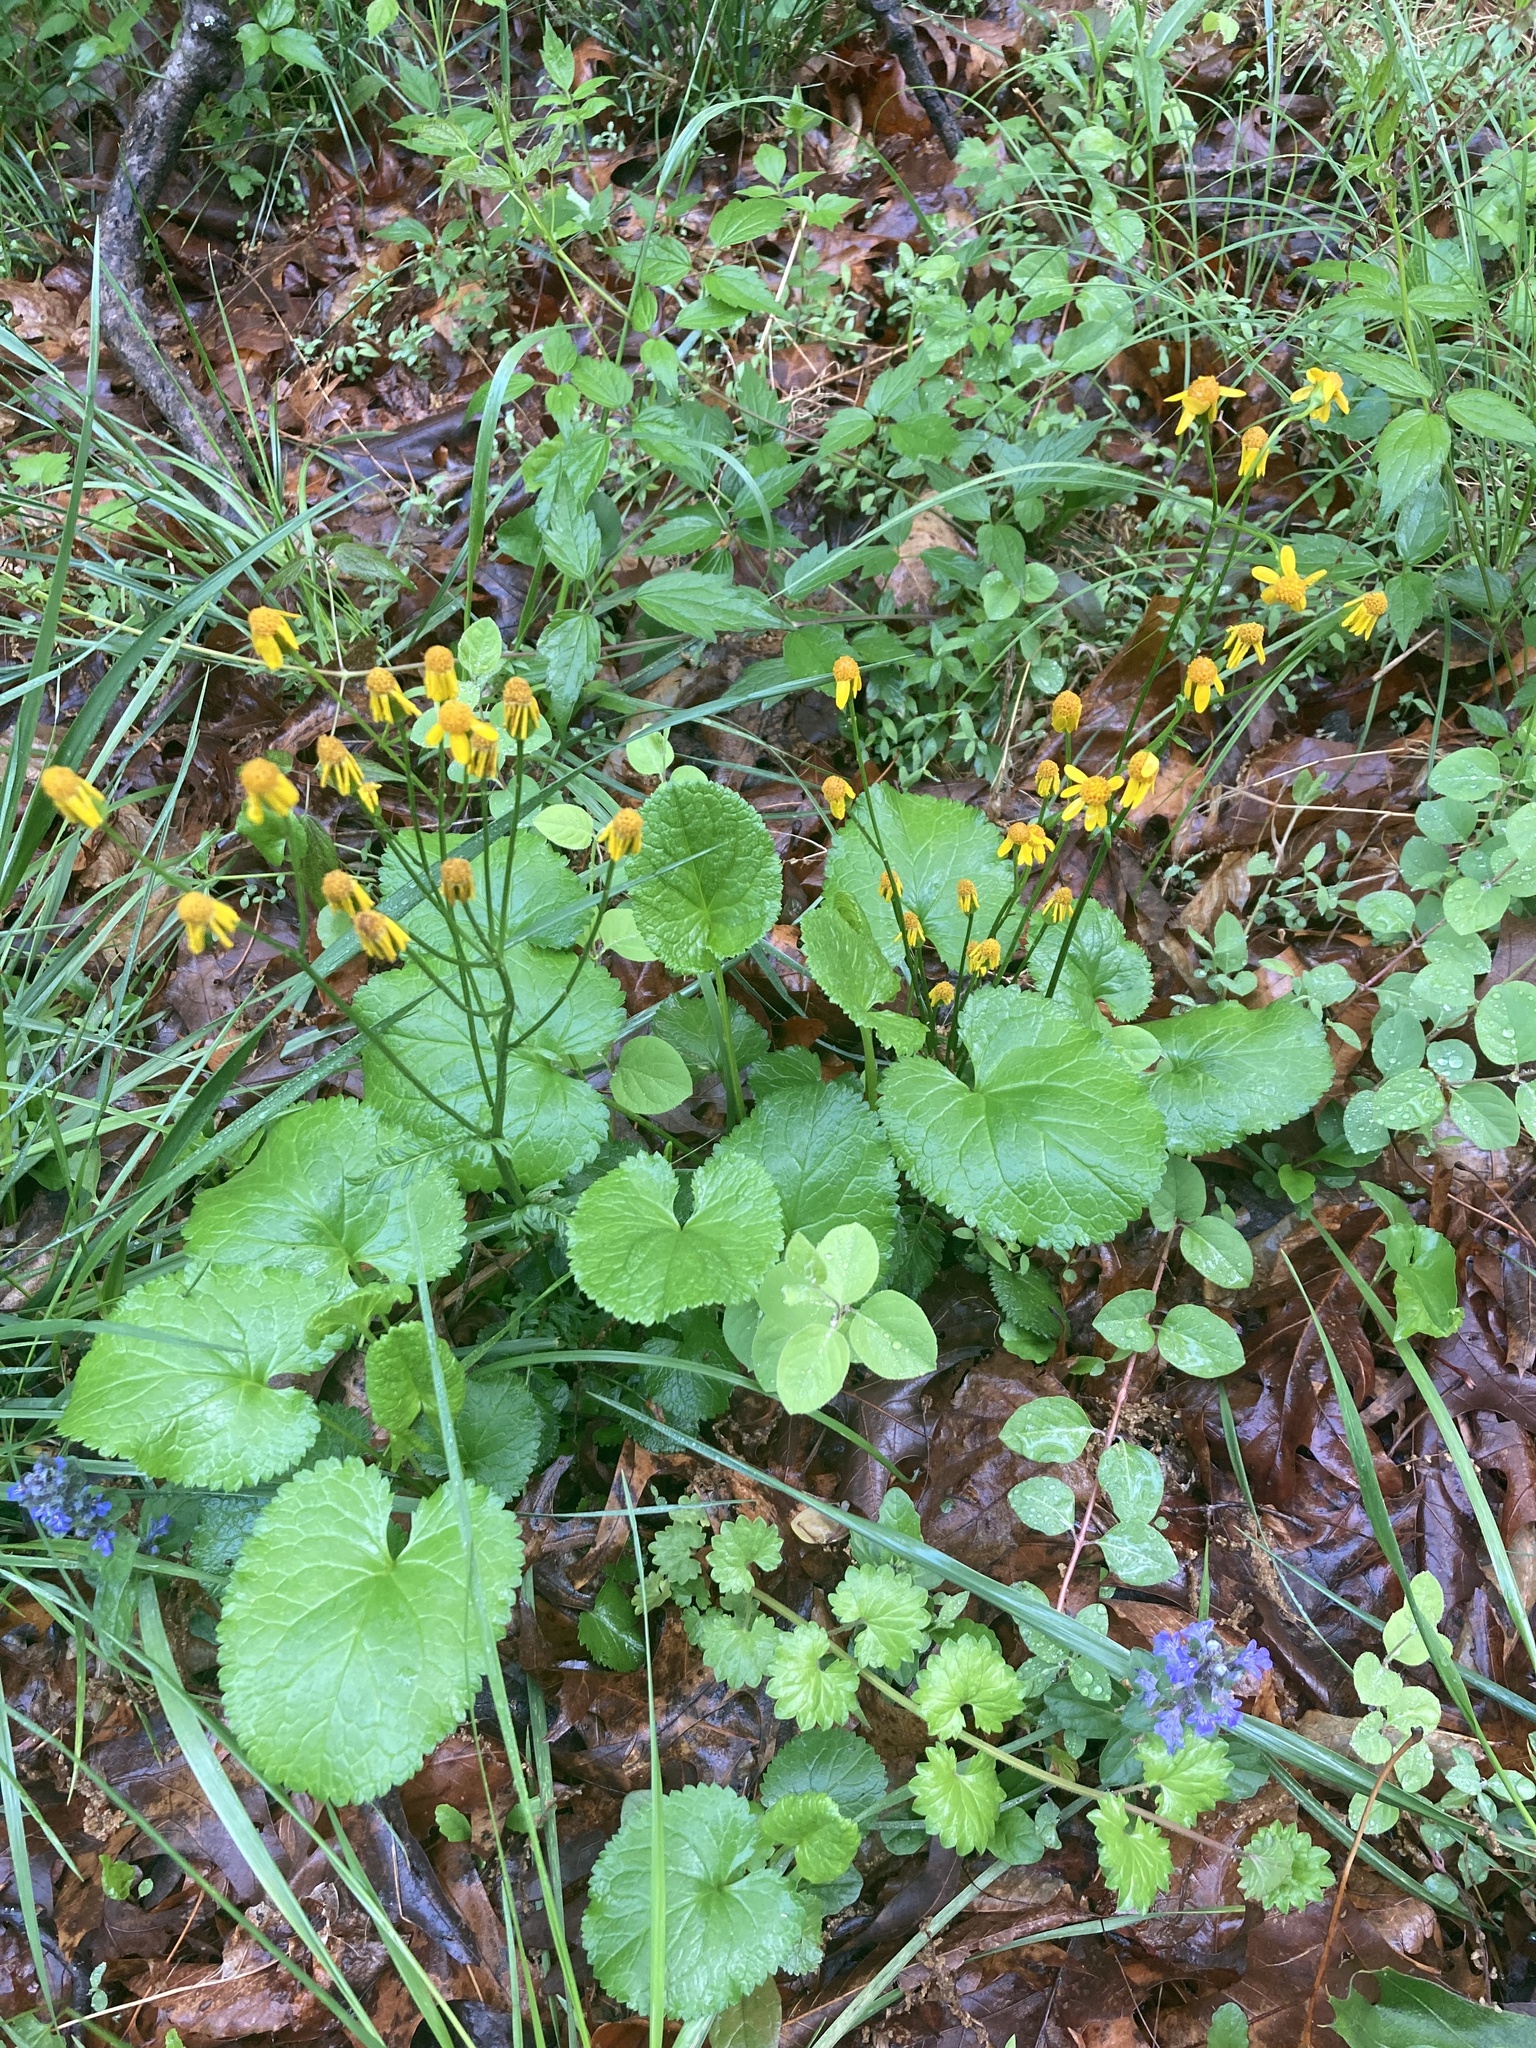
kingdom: Plantae
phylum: Tracheophyta
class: Magnoliopsida
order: Asterales
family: Asteraceae
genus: Packera
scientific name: Packera aurea
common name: Golden groundsel
